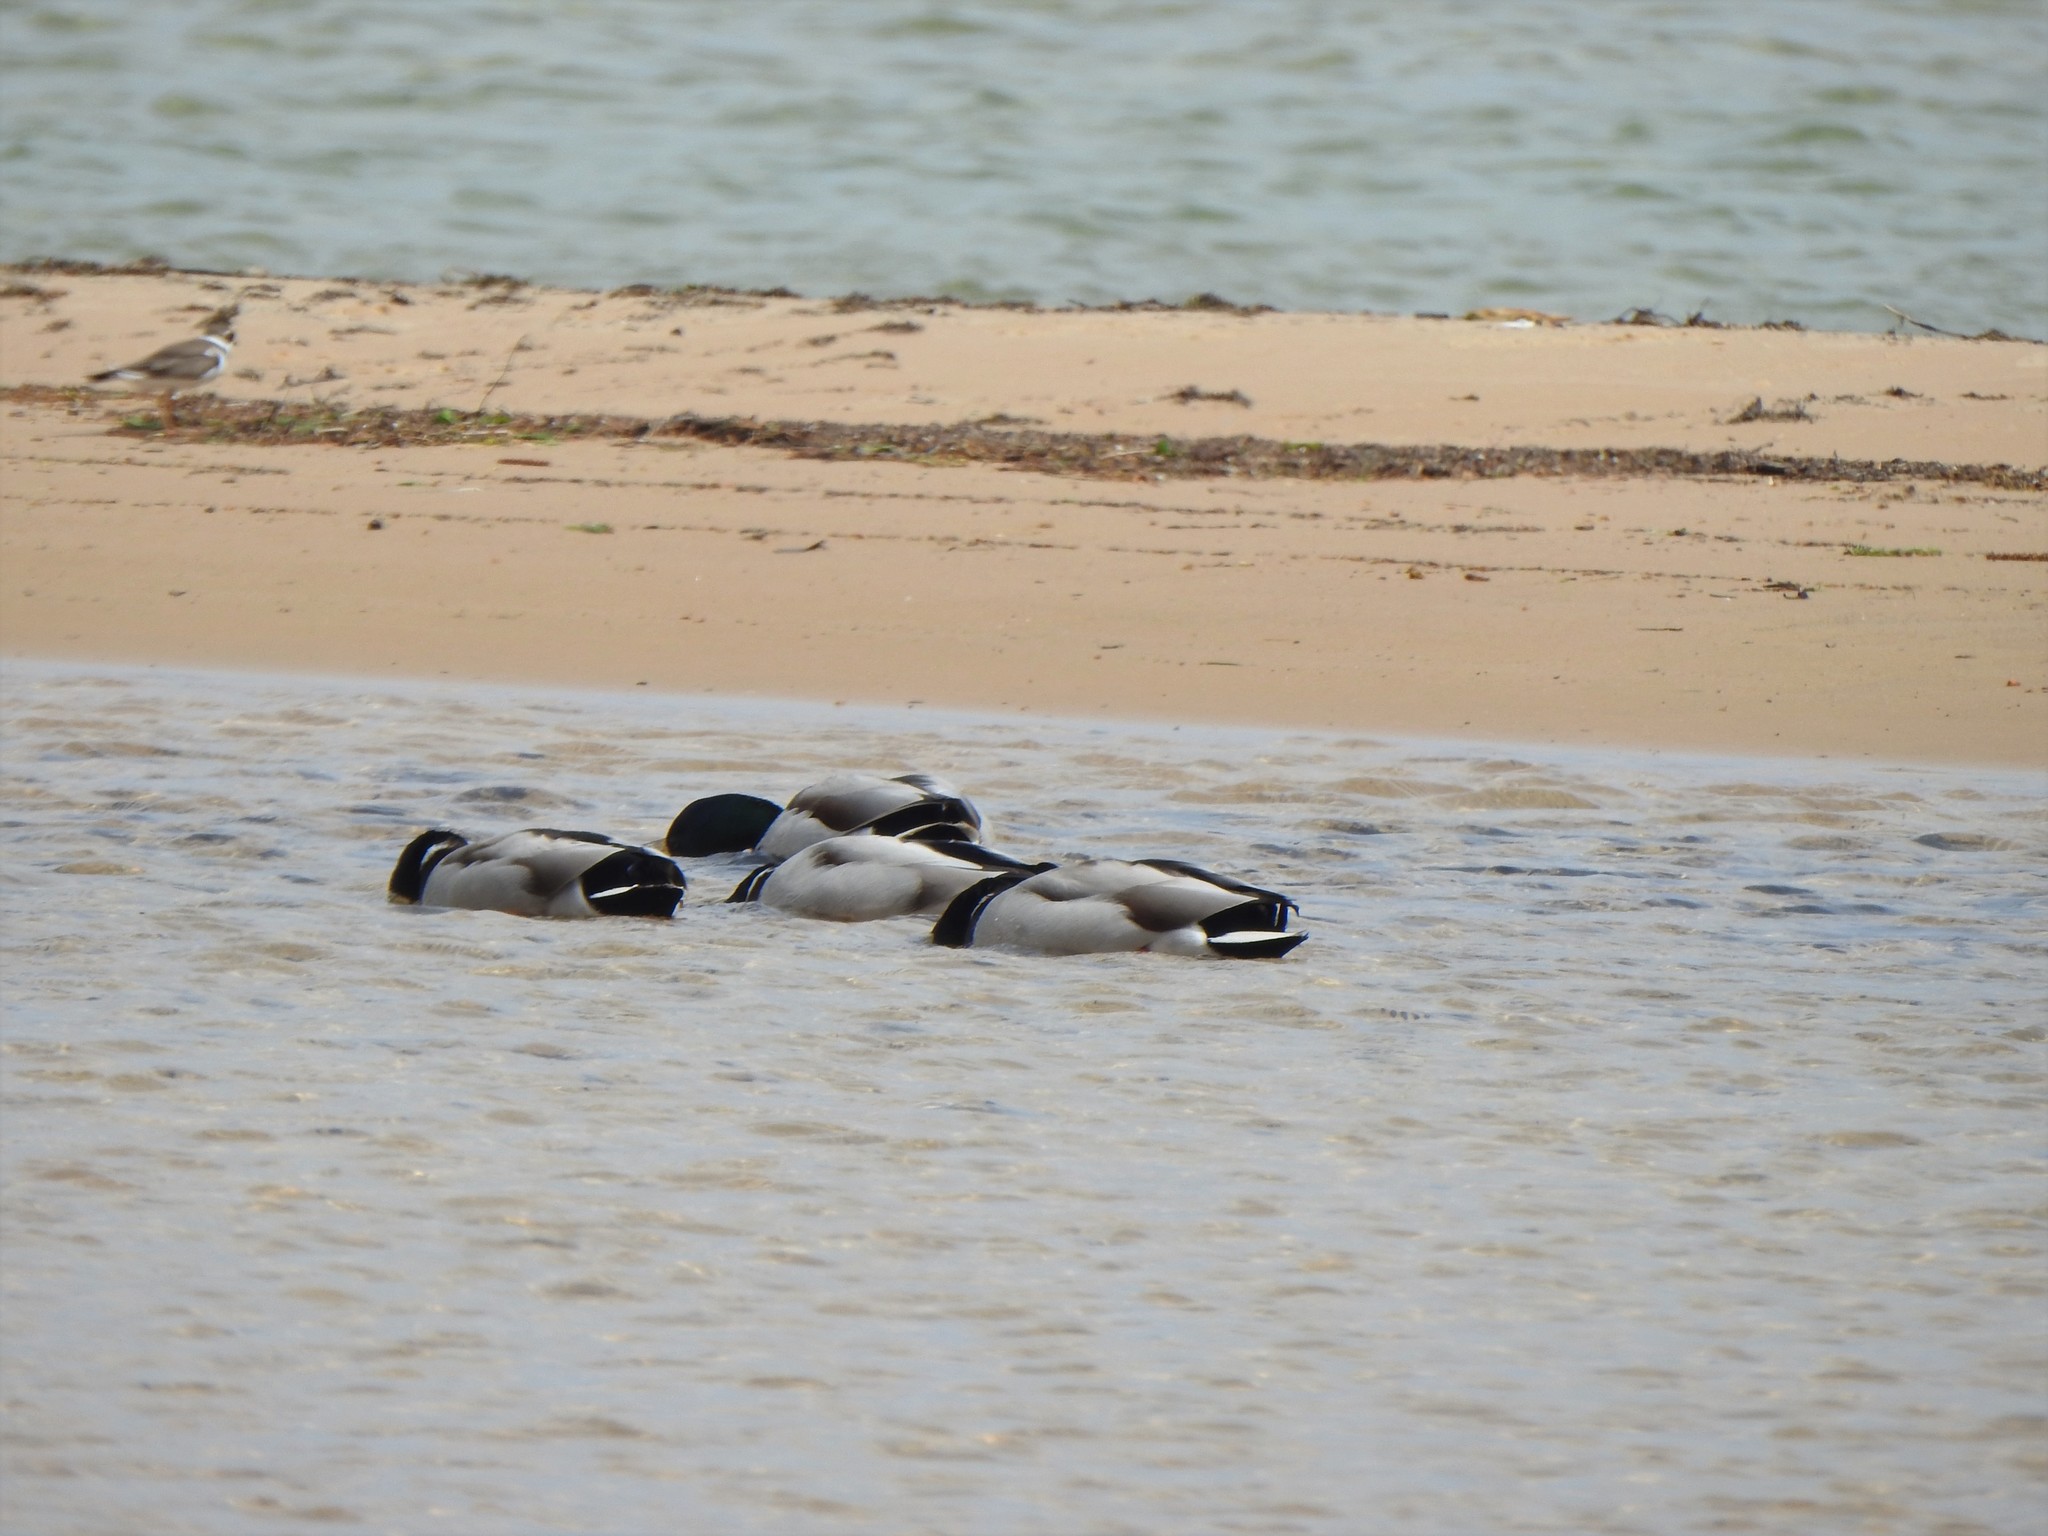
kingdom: Animalia
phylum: Chordata
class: Aves
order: Anseriformes
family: Anatidae
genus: Anas
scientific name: Anas platyrhynchos
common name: Mallard
